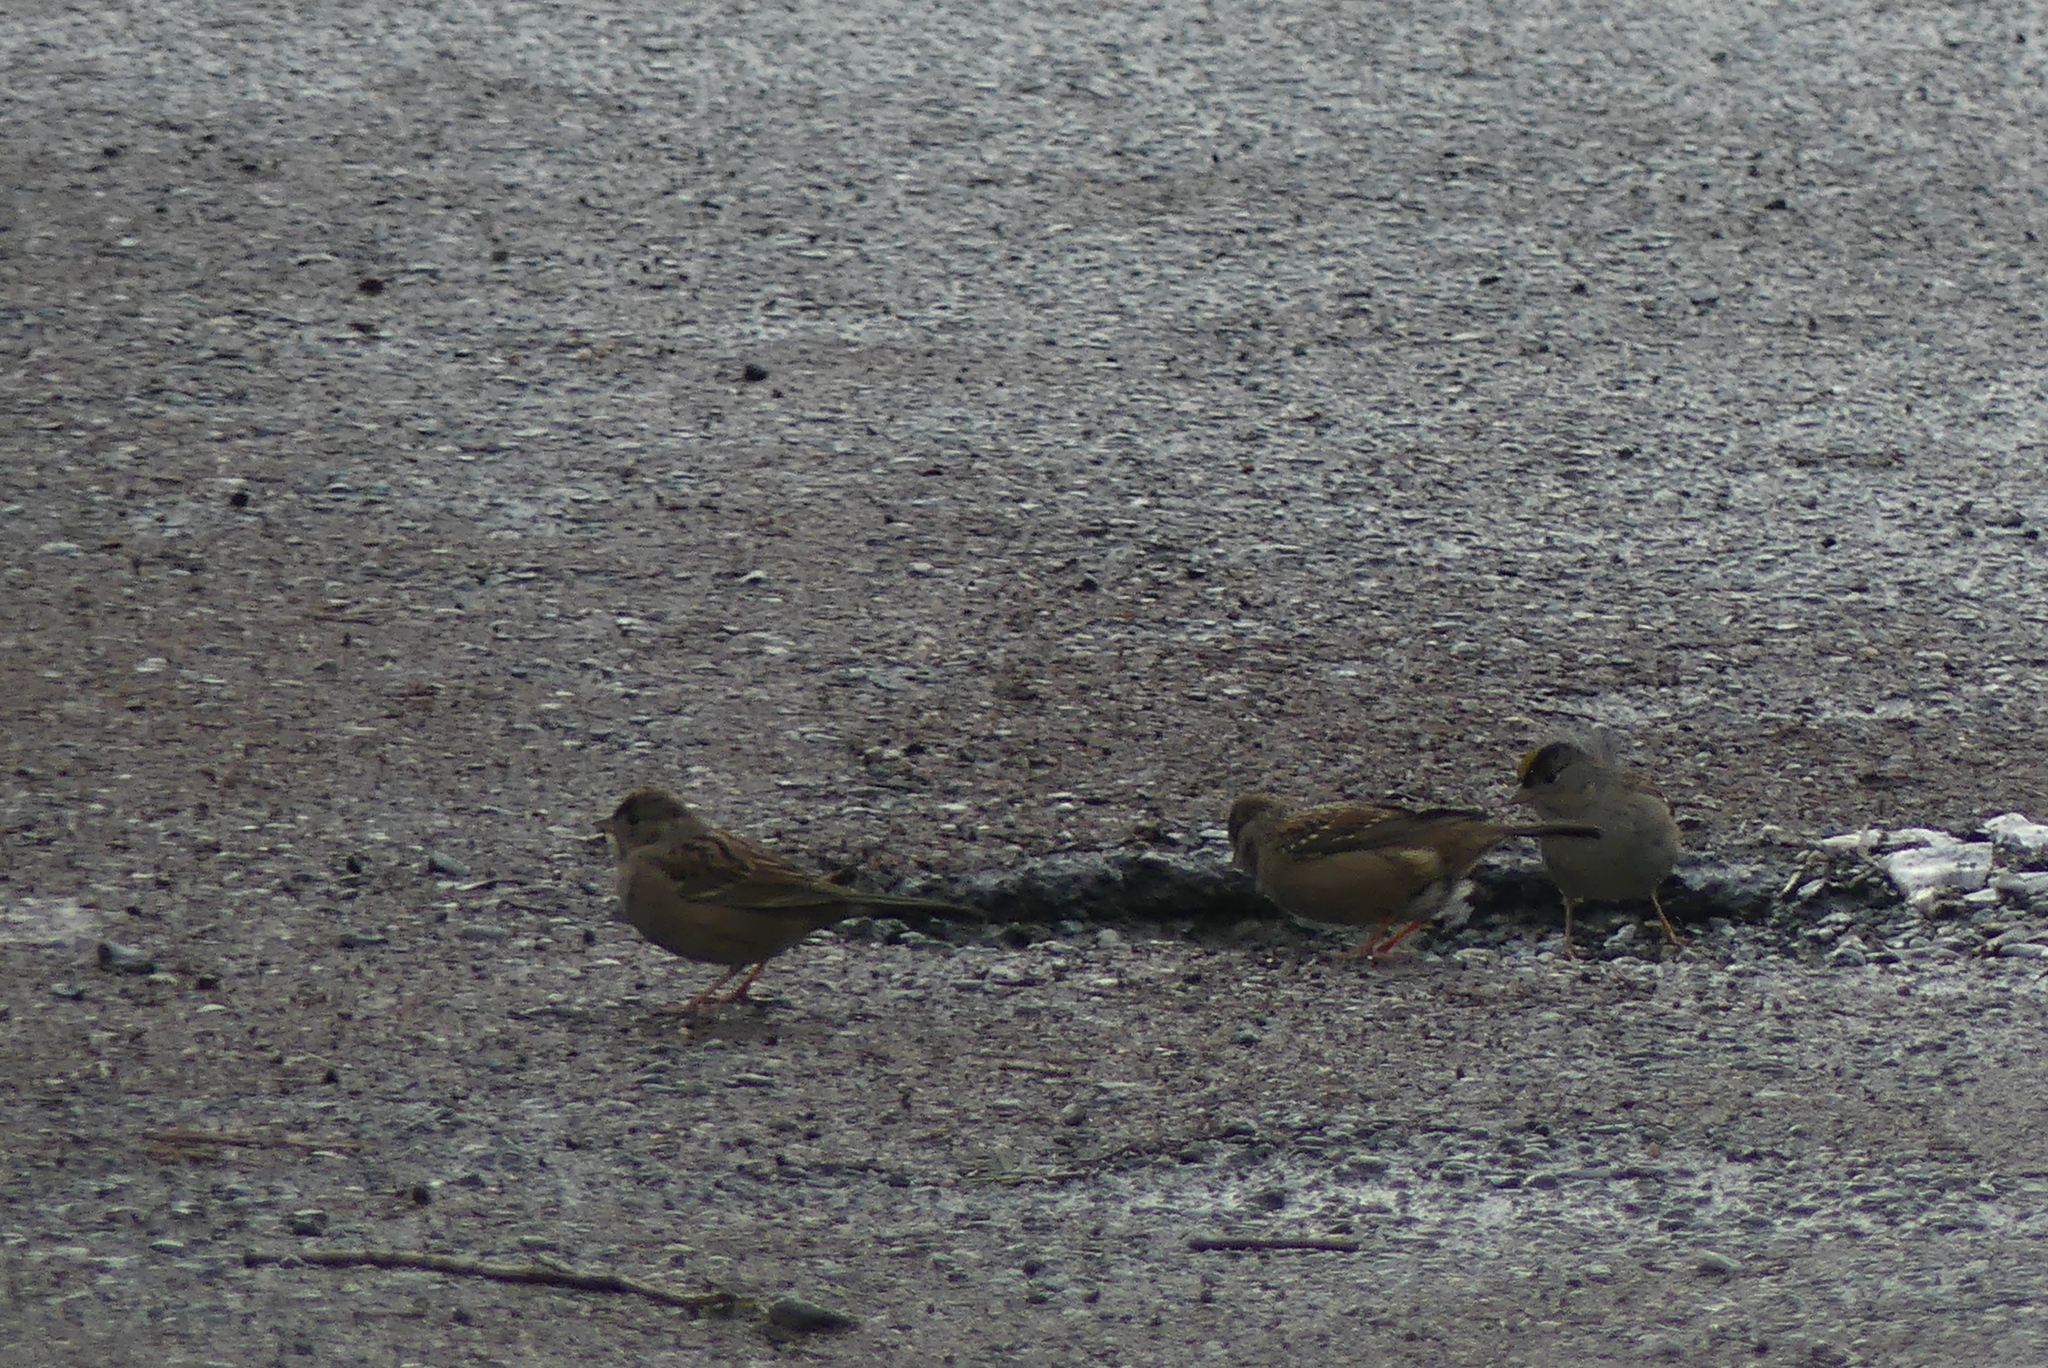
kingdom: Animalia
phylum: Chordata
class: Aves
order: Passeriformes
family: Passerellidae
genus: Zonotrichia
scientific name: Zonotrichia atricapilla
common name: Golden-crowned sparrow
